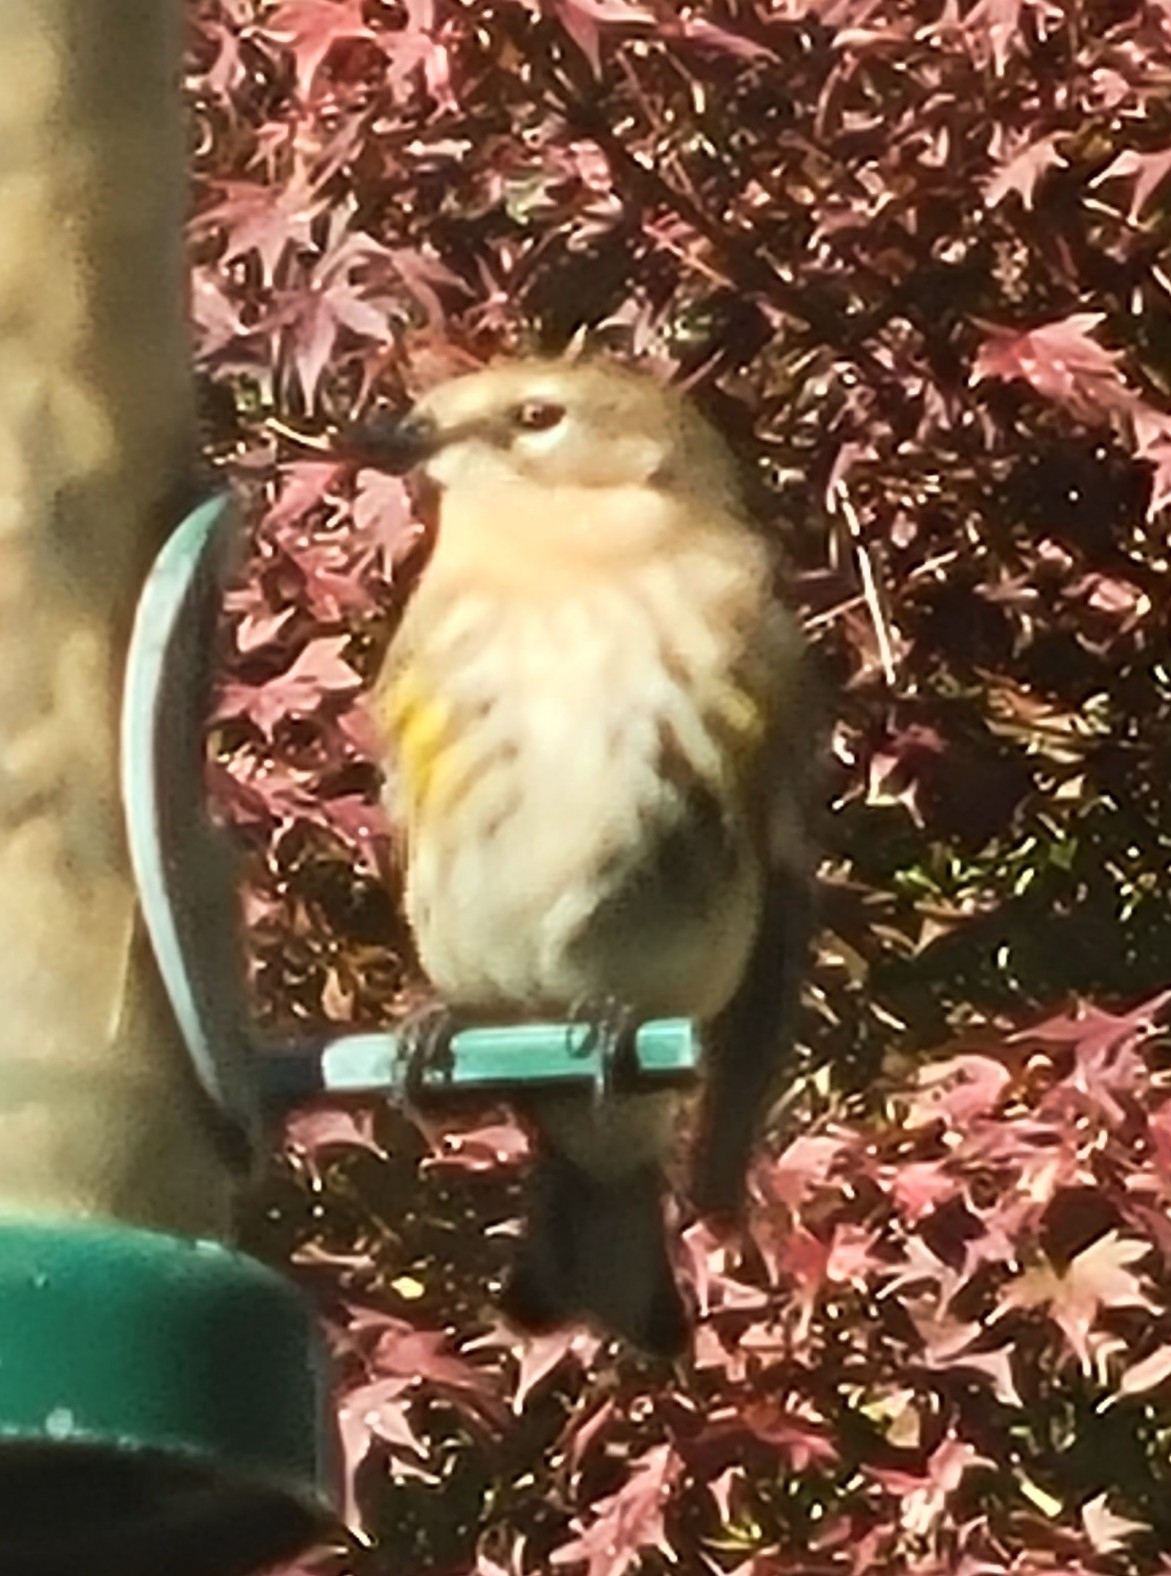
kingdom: Animalia
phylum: Chordata
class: Aves
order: Passeriformes
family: Parulidae
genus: Setophaga
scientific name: Setophaga coronata
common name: Myrtle warbler
